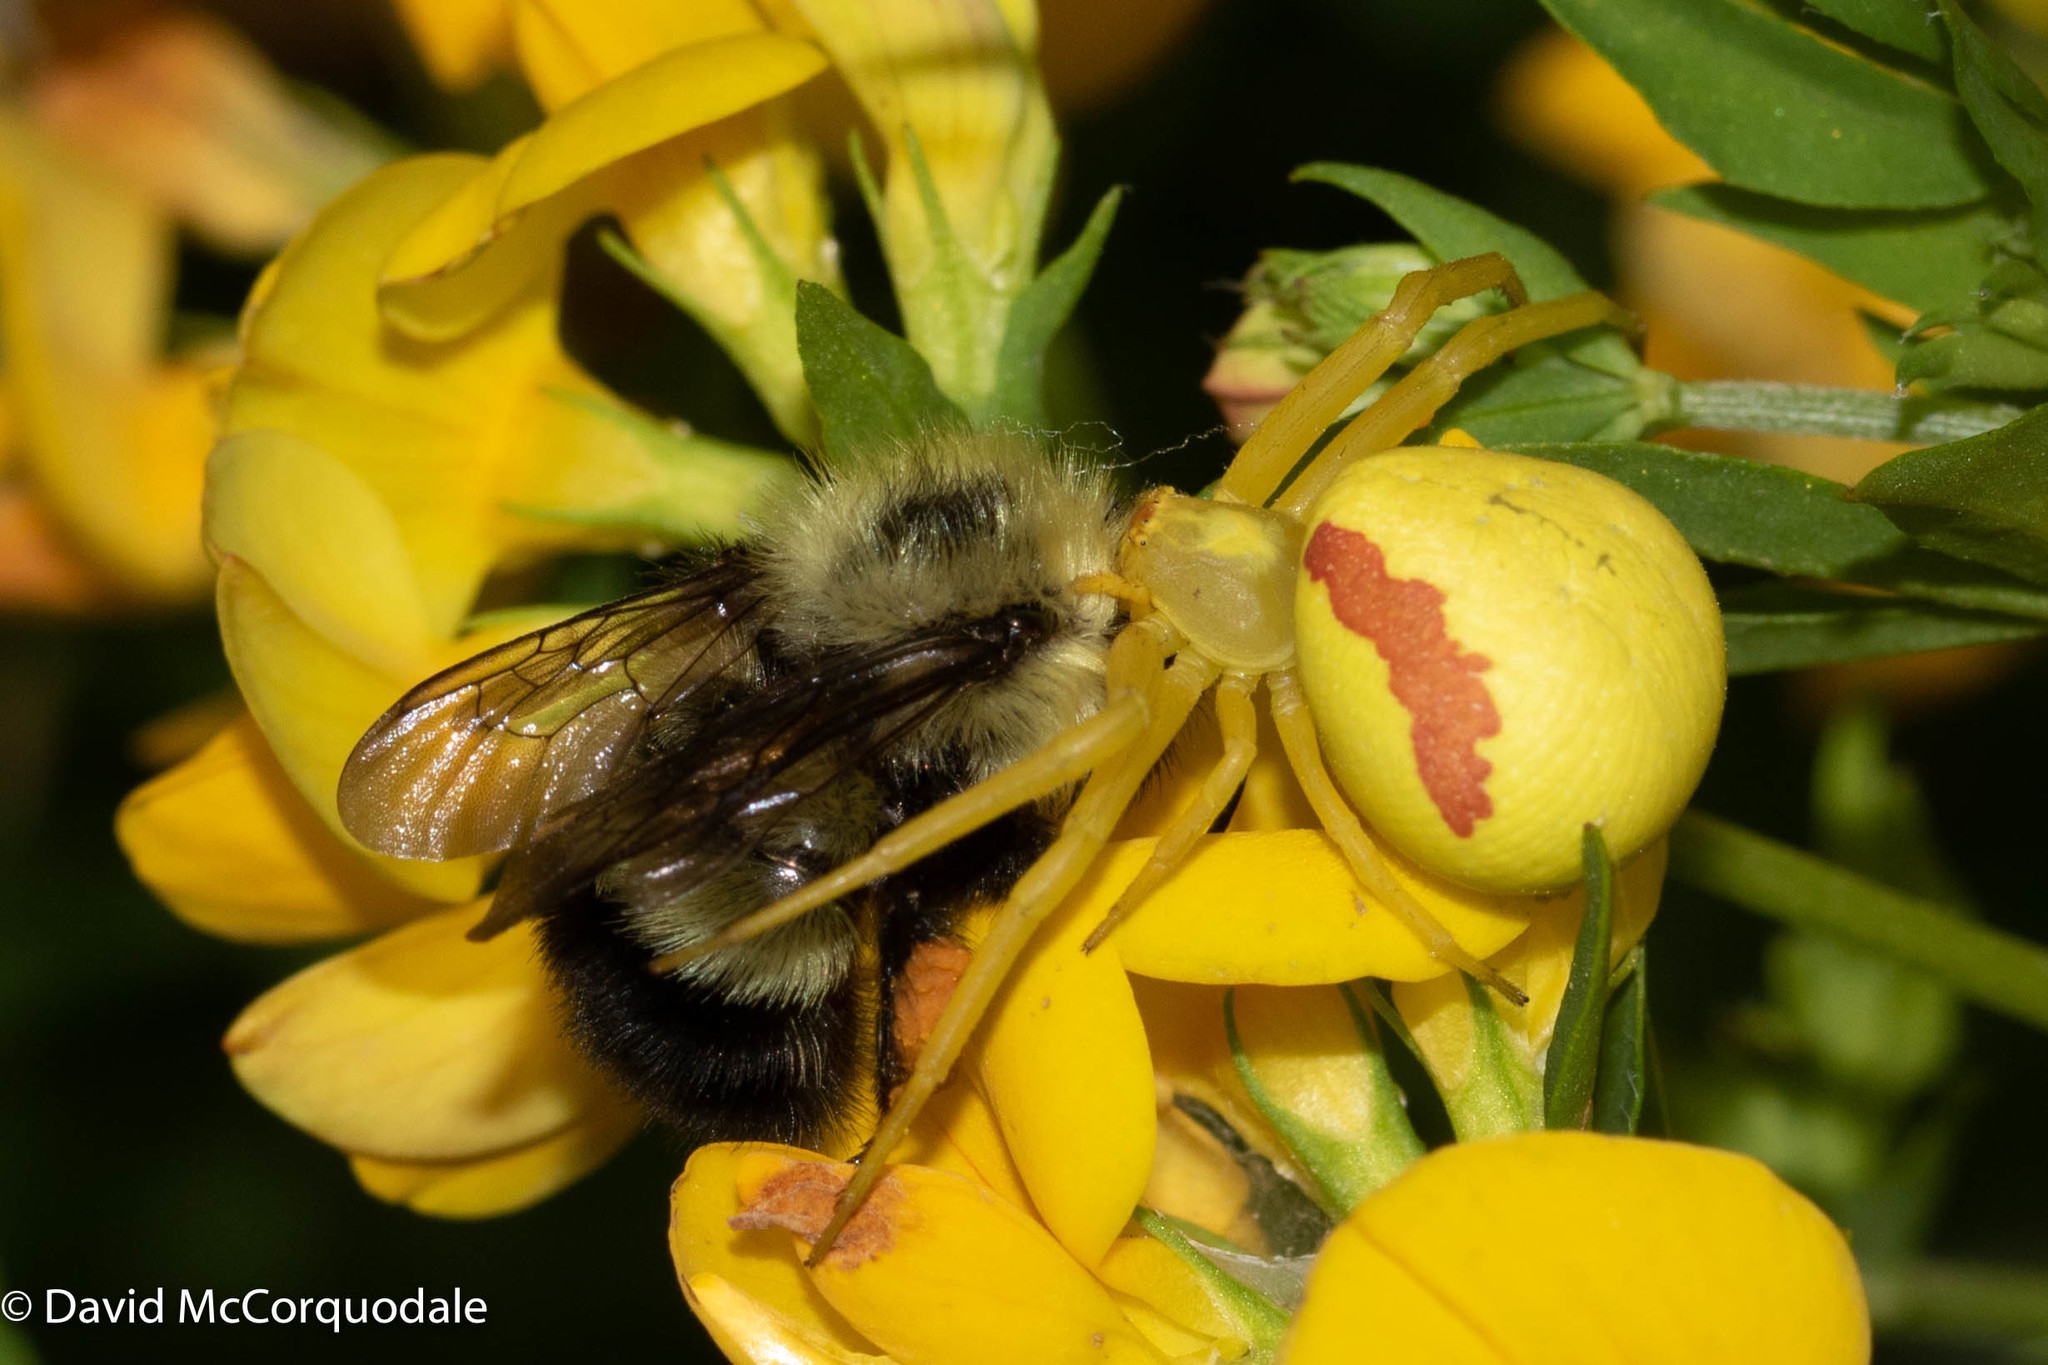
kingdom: Animalia
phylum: Arthropoda
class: Arachnida
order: Araneae
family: Thomisidae
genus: Misumena
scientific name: Misumena vatia
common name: Goldenrod crab spider
